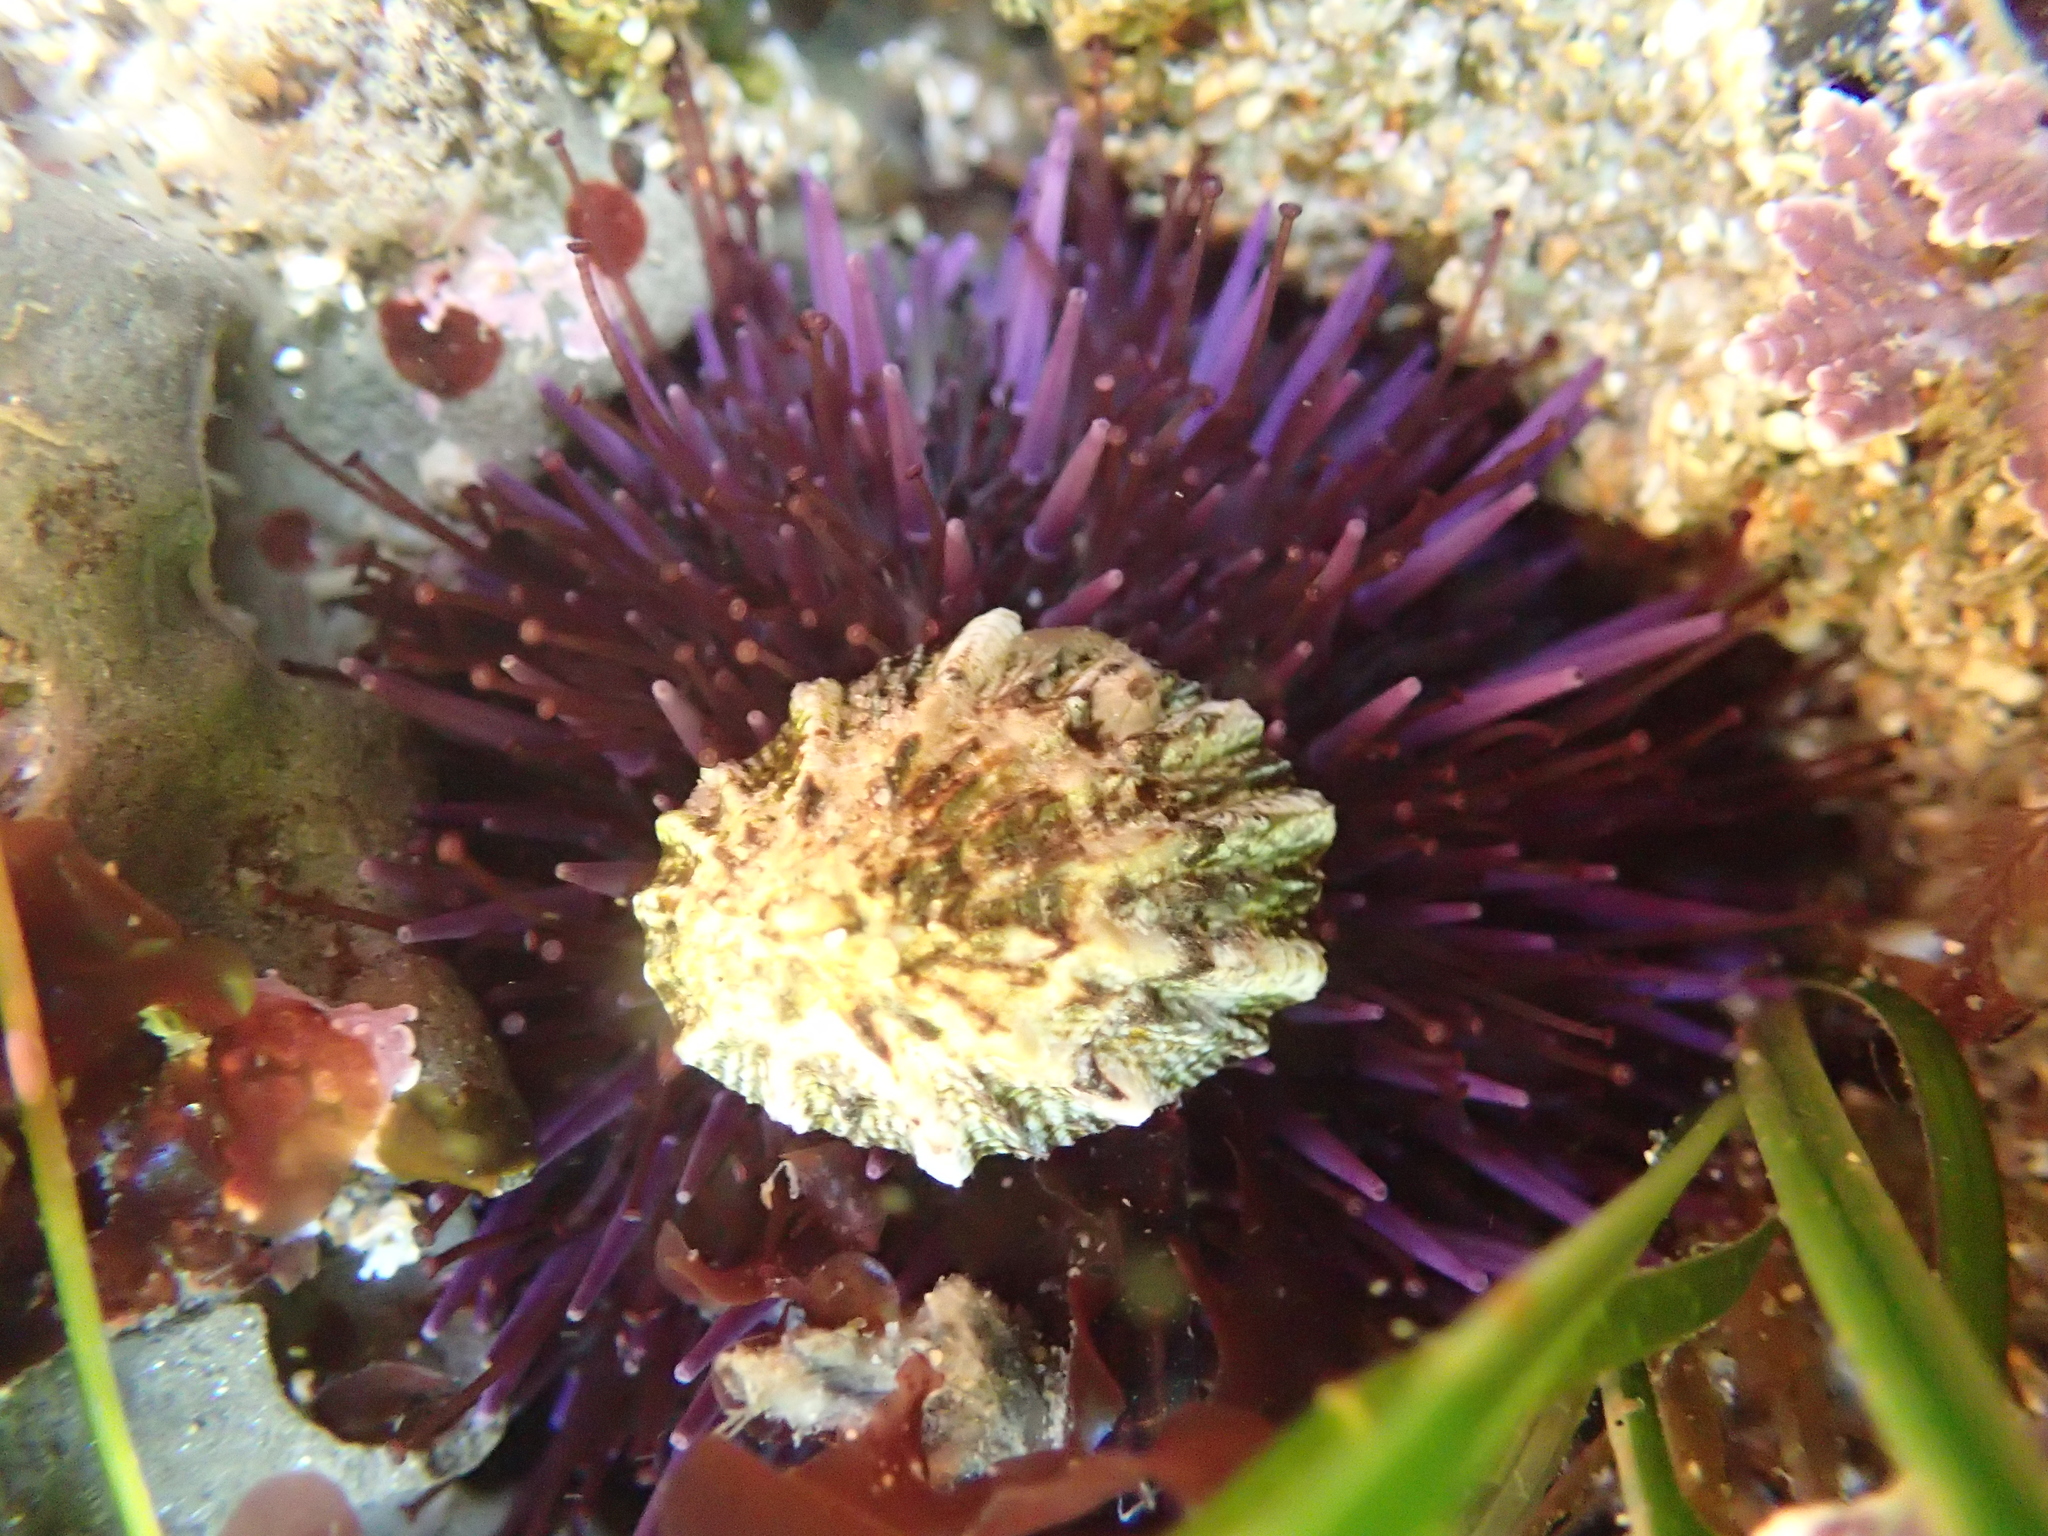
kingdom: Animalia
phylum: Echinodermata
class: Echinoidea
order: Camarodonta
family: Strongylocentrotidae
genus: Strongylocentrotus
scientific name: Strongylocentrotus purpuratus
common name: Purple sea urchin
